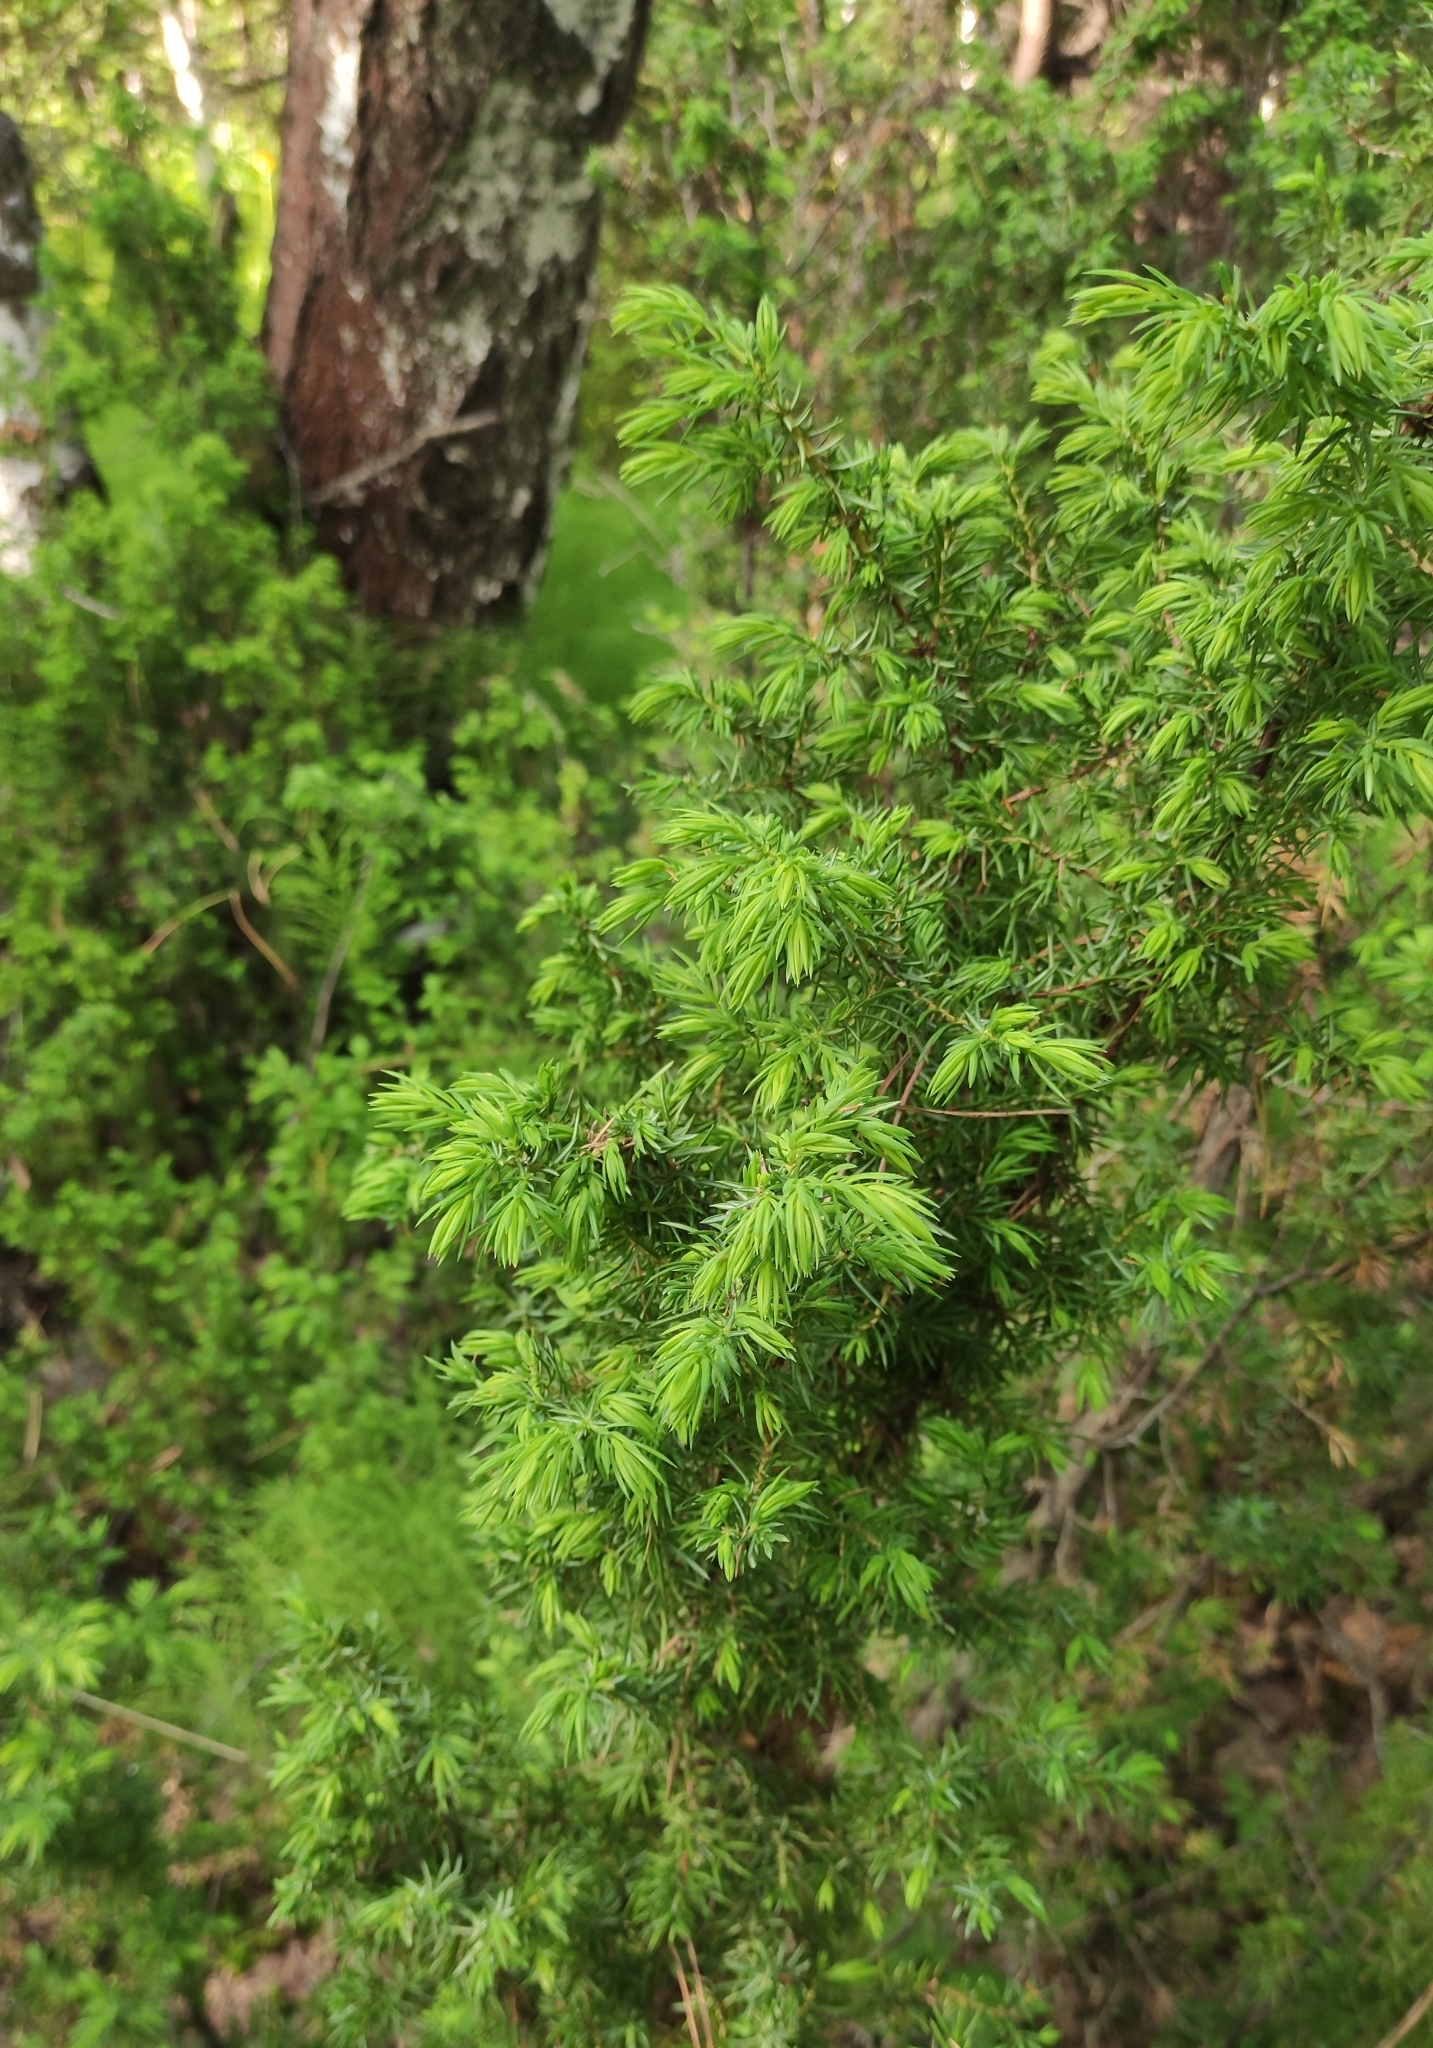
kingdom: Plantae
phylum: Tracheophyta
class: Pinopsida
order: Pinales
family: Cupressaceae
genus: Juniperus
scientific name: Juniperus communis
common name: Common juniper
